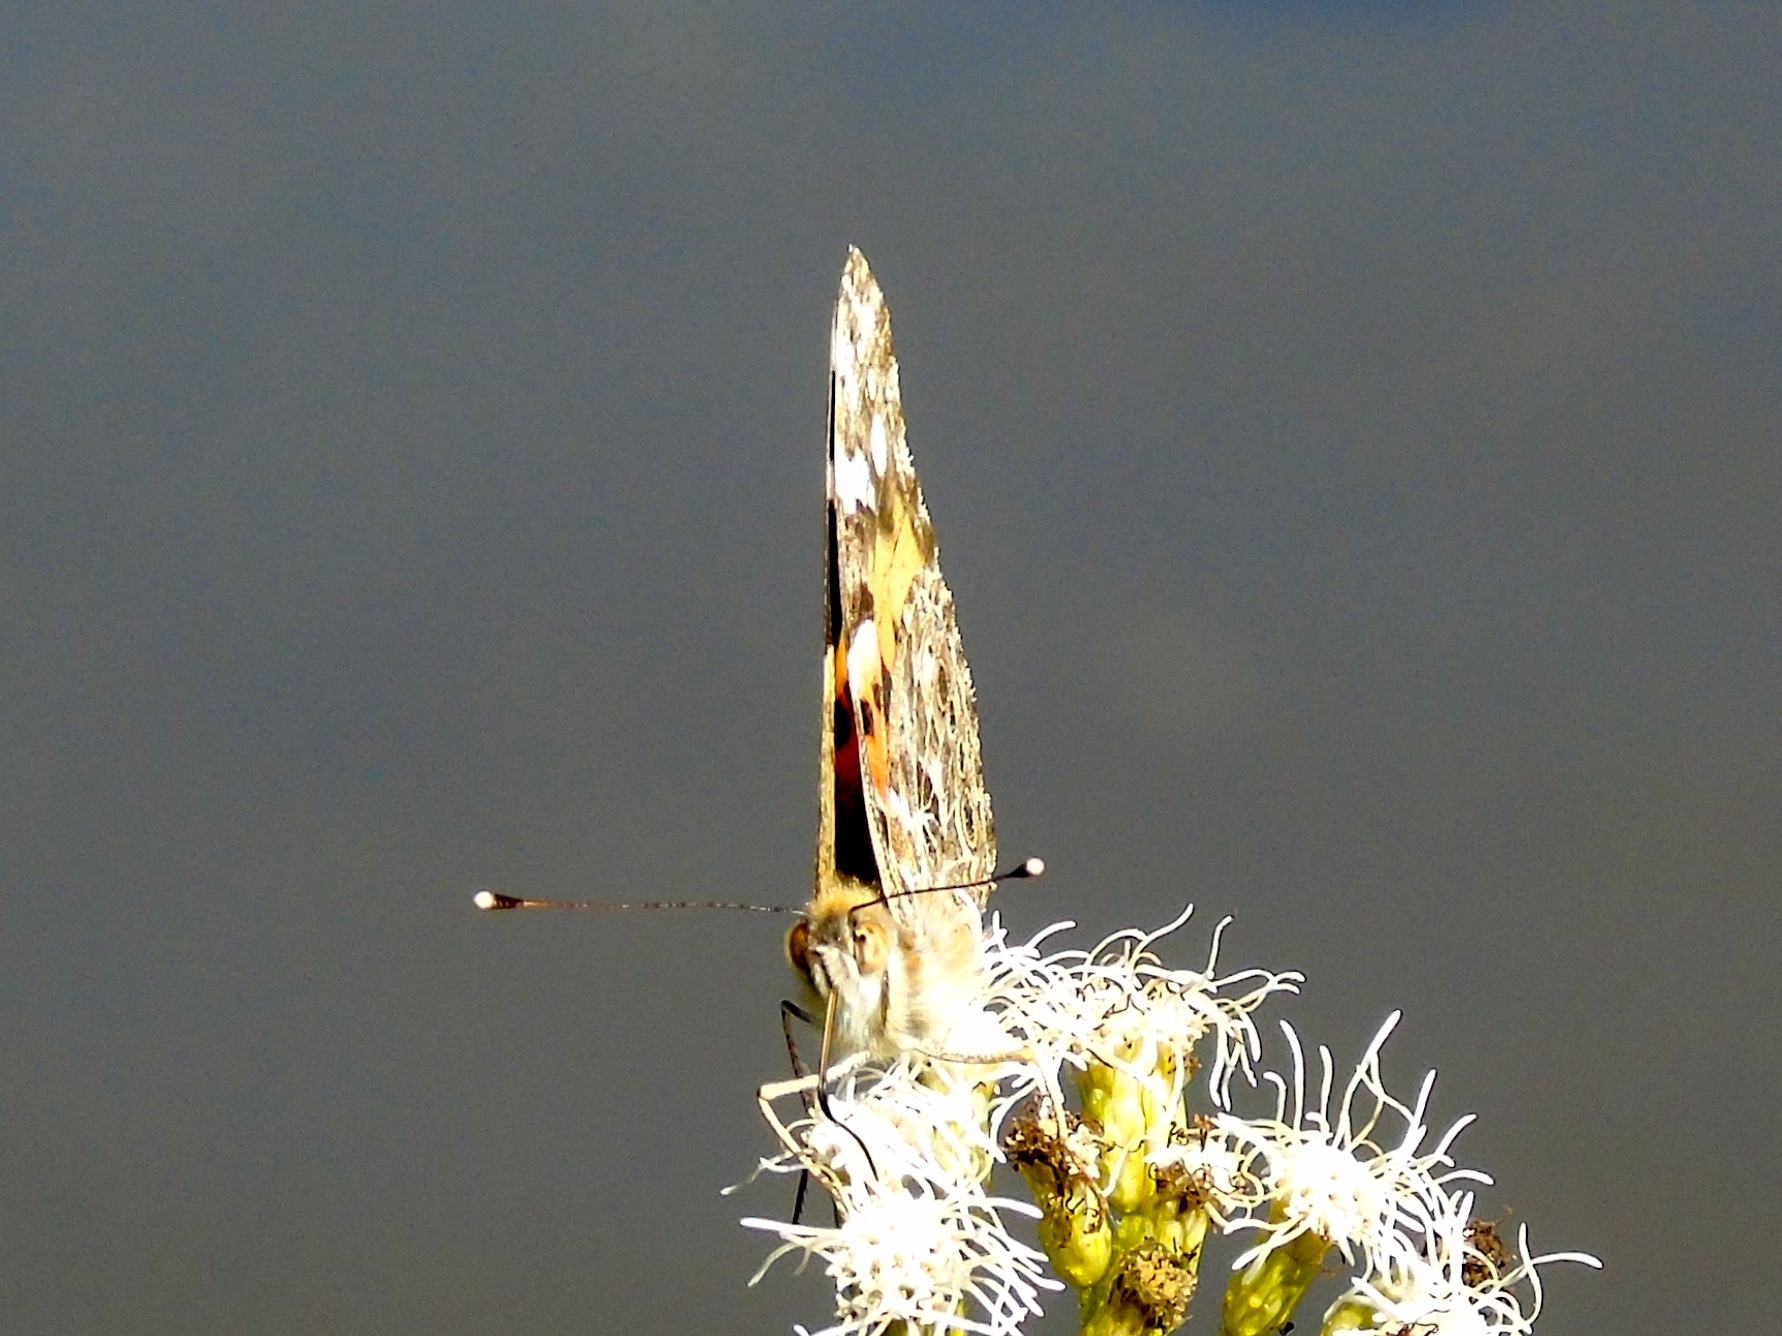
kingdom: Animalia
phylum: Arthropoda
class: Insecta
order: Lepidoptera
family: Nymphalidae
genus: Vanessa
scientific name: Vanessa cardui
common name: Painted lady
